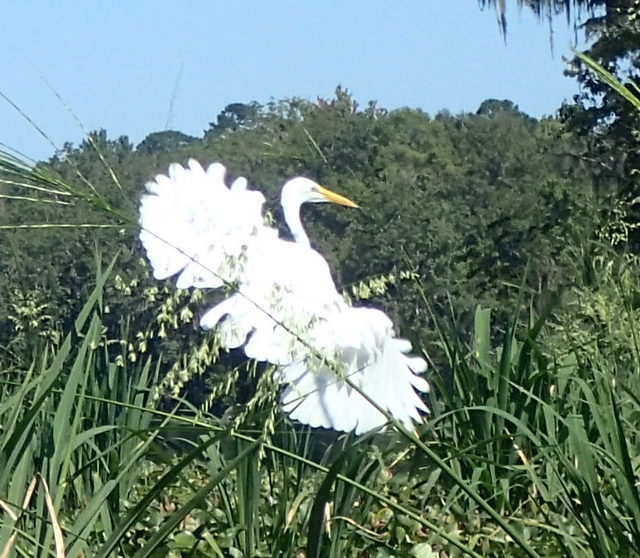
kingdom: Animalia
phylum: Chordata
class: Aves
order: Pelecaniformes
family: Ardeidae
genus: Ardea
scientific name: Ardea alba
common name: Great egret
